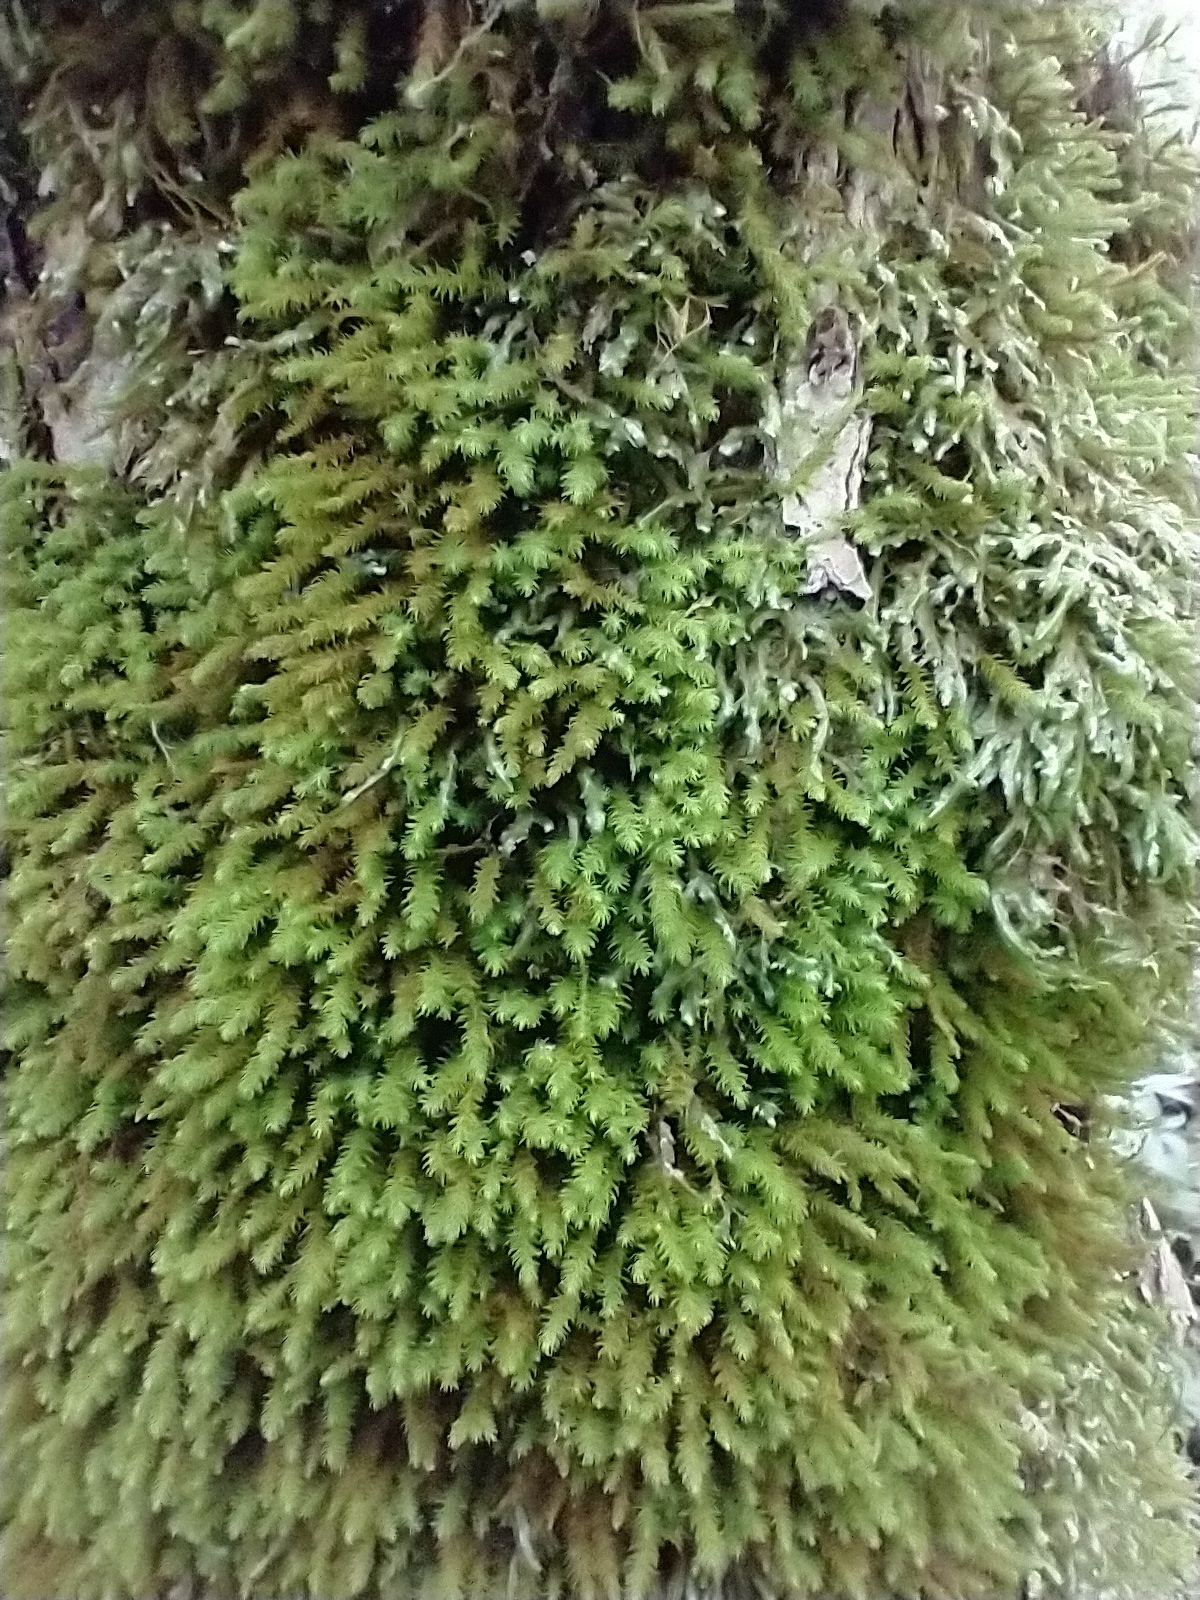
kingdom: Plantae
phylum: Bryophyta
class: Bryopsida
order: Hypnales
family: Anomodontaceae
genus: Anomodon
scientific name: Anomodon viticulosus
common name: Tall anomodon
